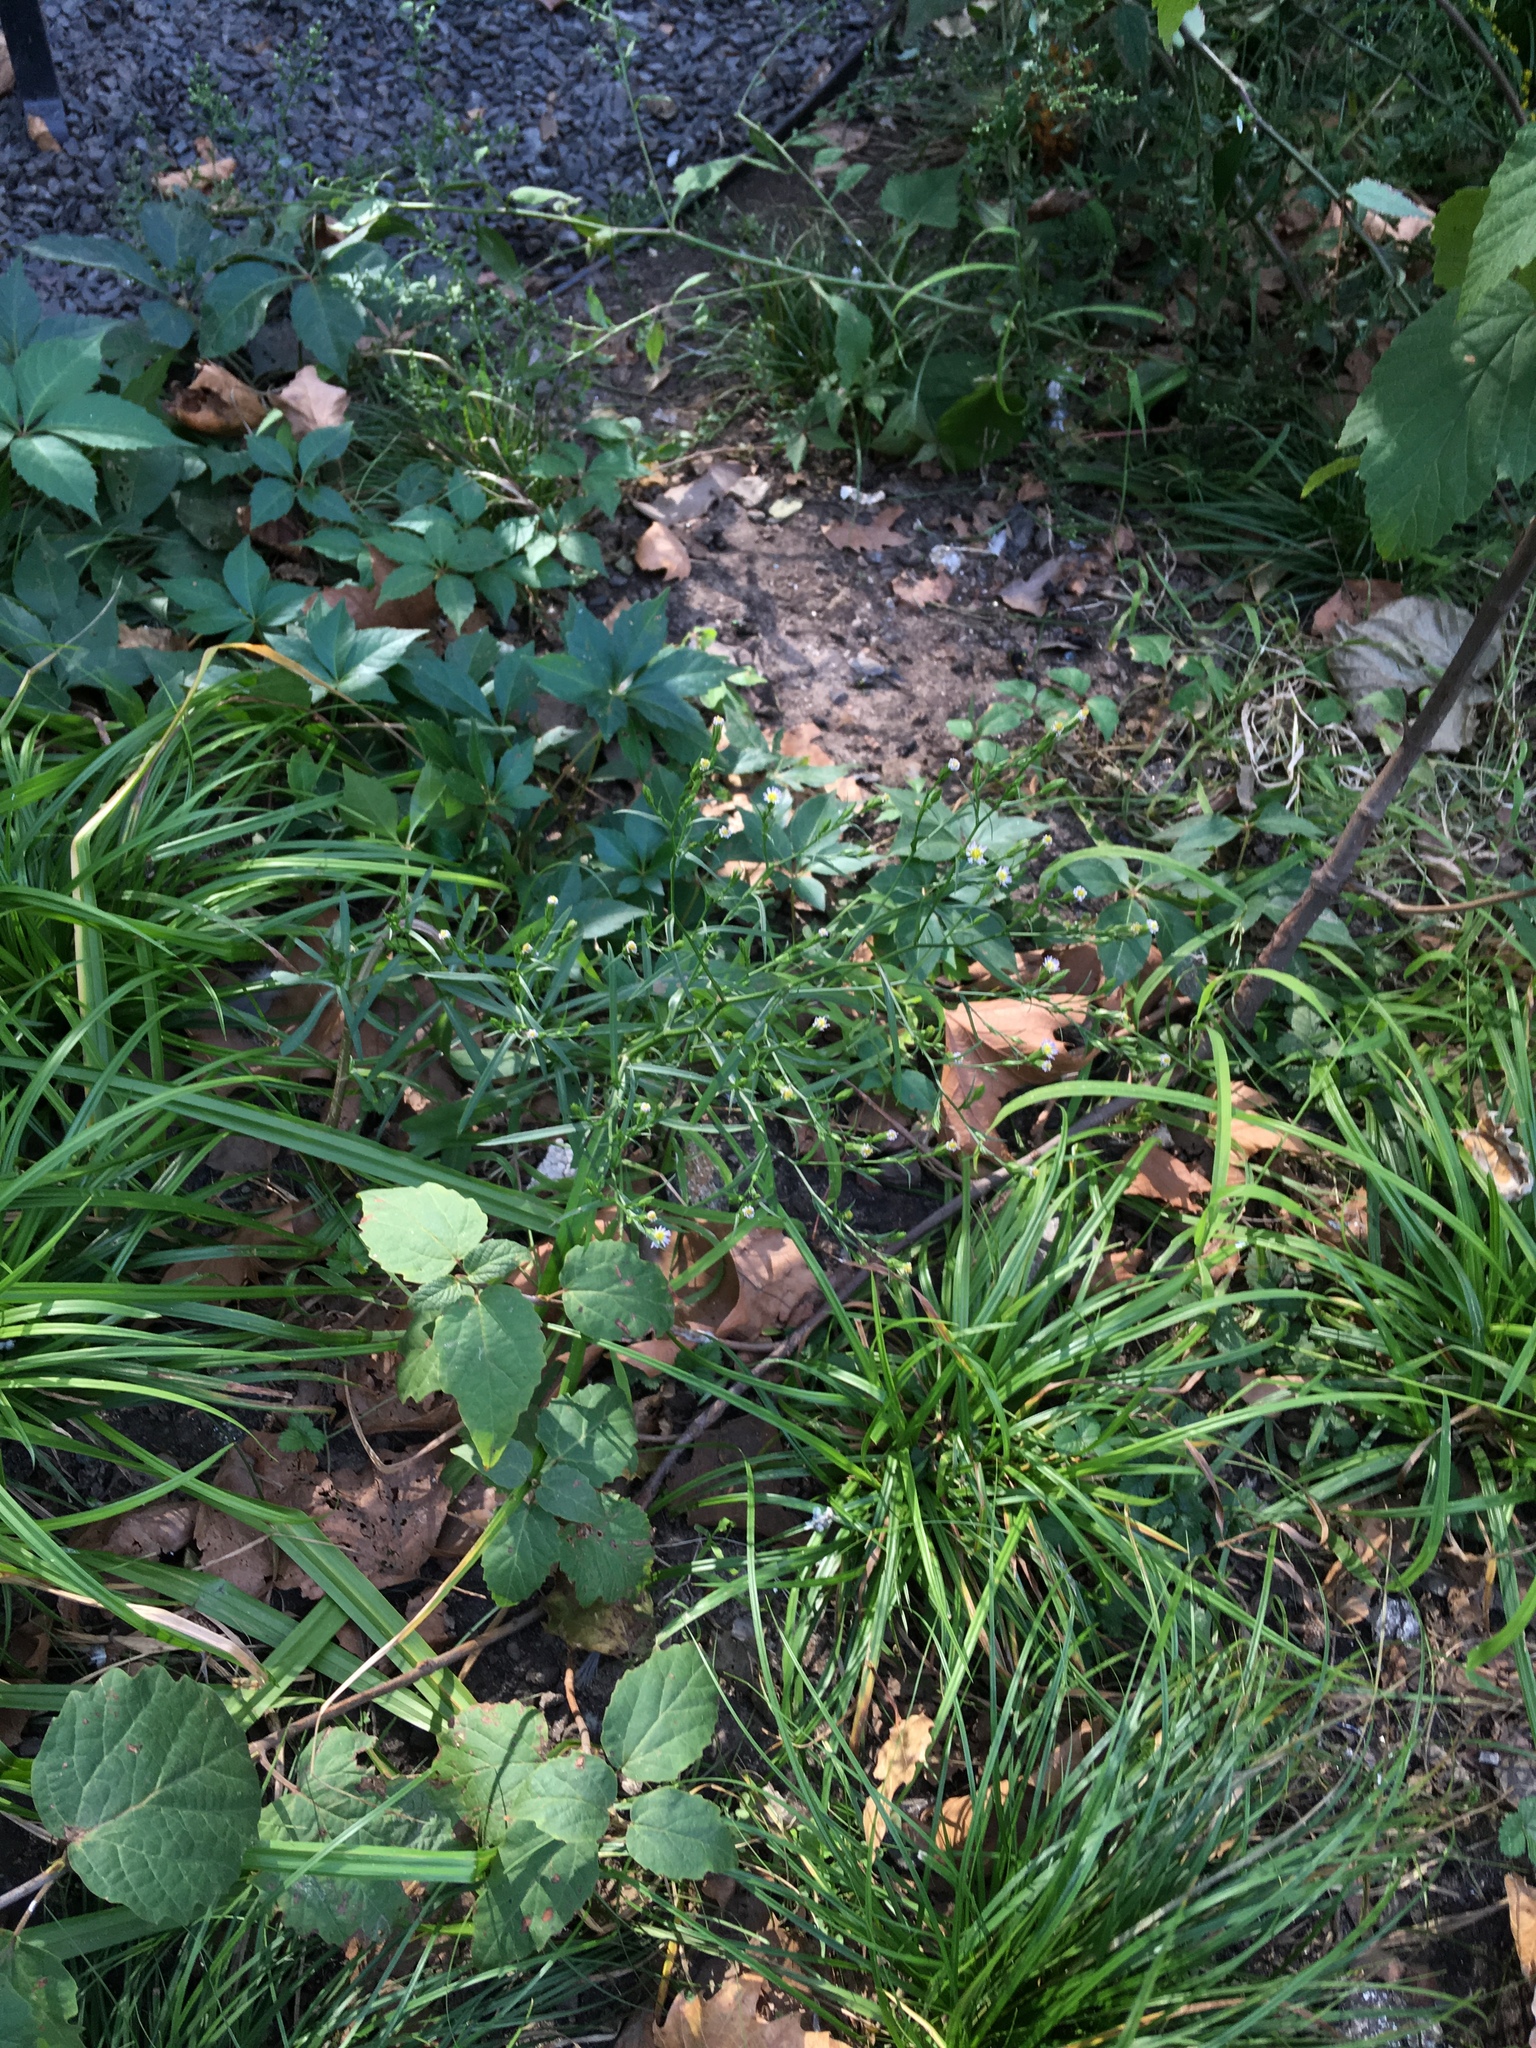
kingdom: Plantae
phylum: Tracheophyta
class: Magnoliopsida
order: Asterales
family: Asteraceae
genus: Symphyotrichum
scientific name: Symphyotrichum subulatum
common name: Annual saltmarsh aster
